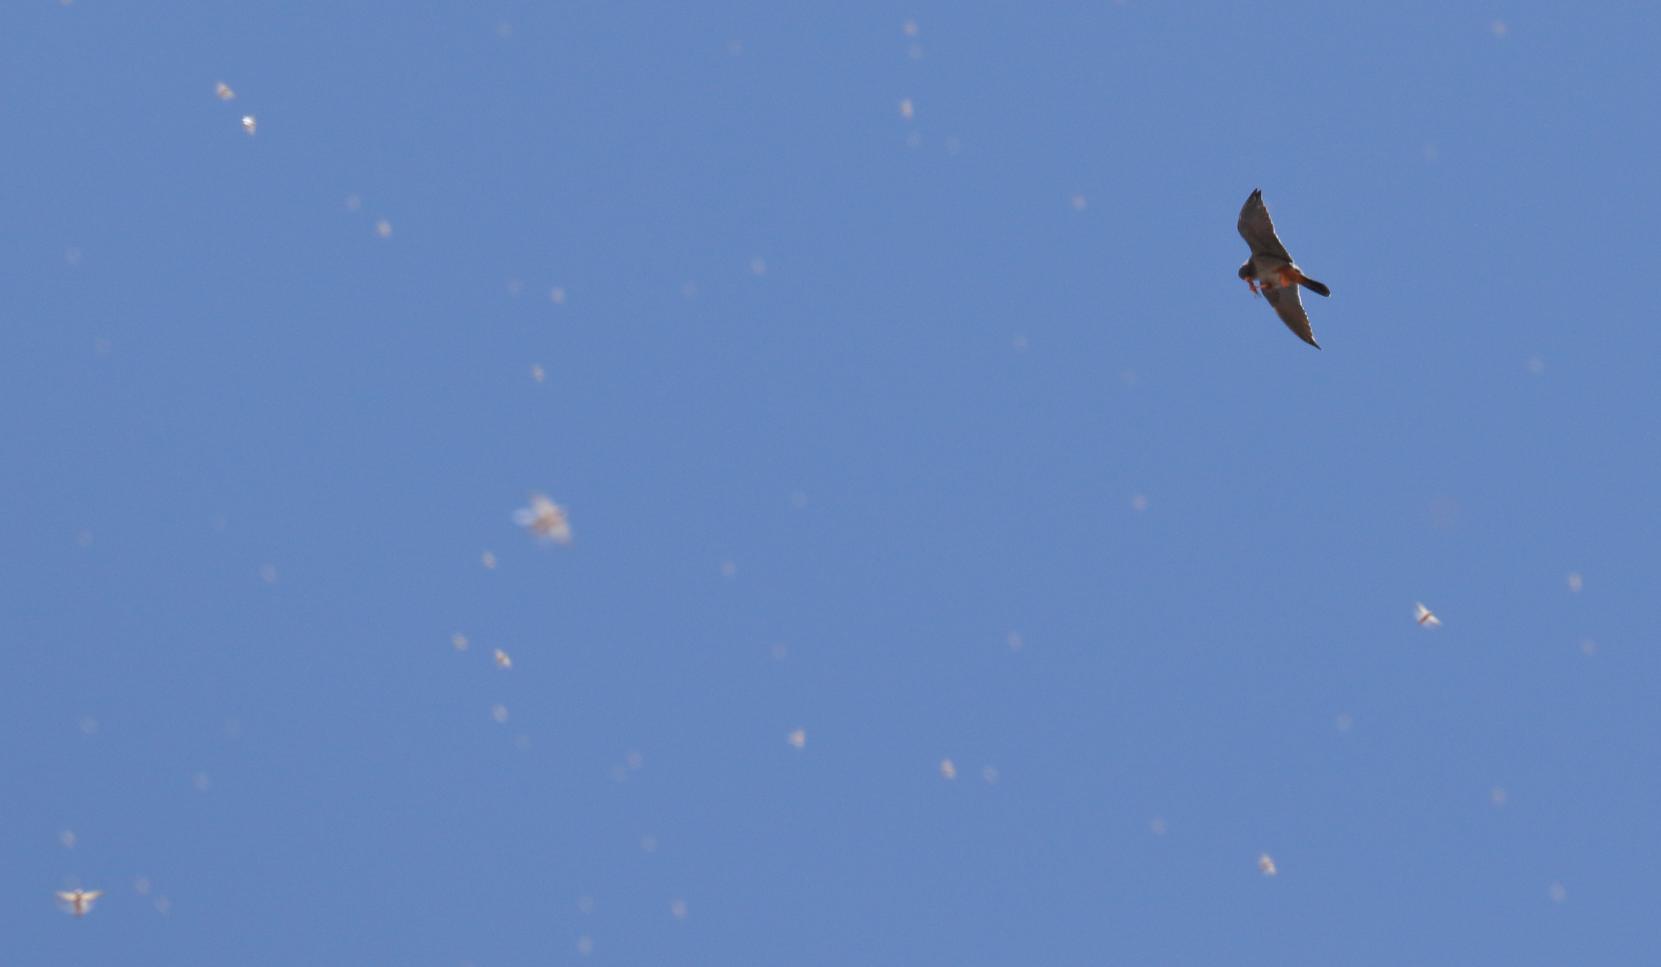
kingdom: Animalia
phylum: Chordata
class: Aves
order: Falconiformes
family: Falconidae
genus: Falco
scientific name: Falco vespertinus
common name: Red-footed falcon
